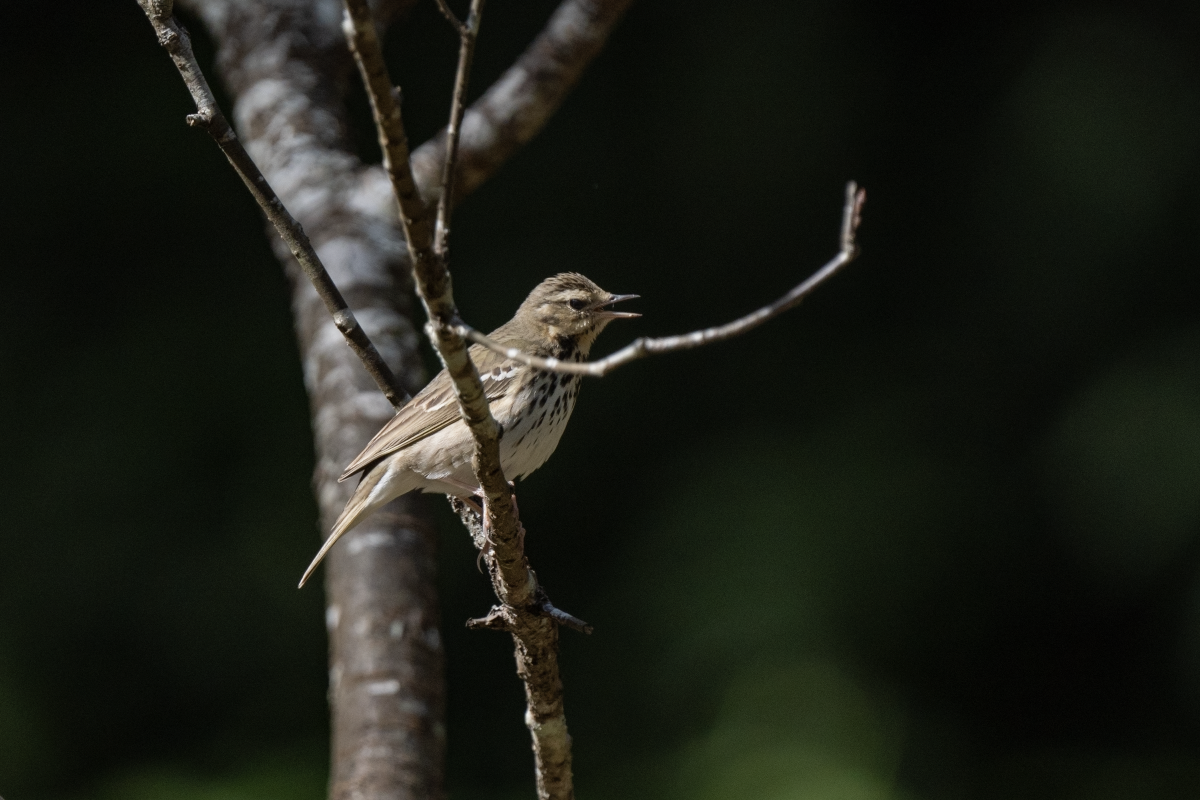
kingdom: Animalia
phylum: Chordata
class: Aves
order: Passeriformes
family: Motacillidae
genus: Anthus
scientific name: Anthus hodgsoni
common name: Olive-backed pipit
